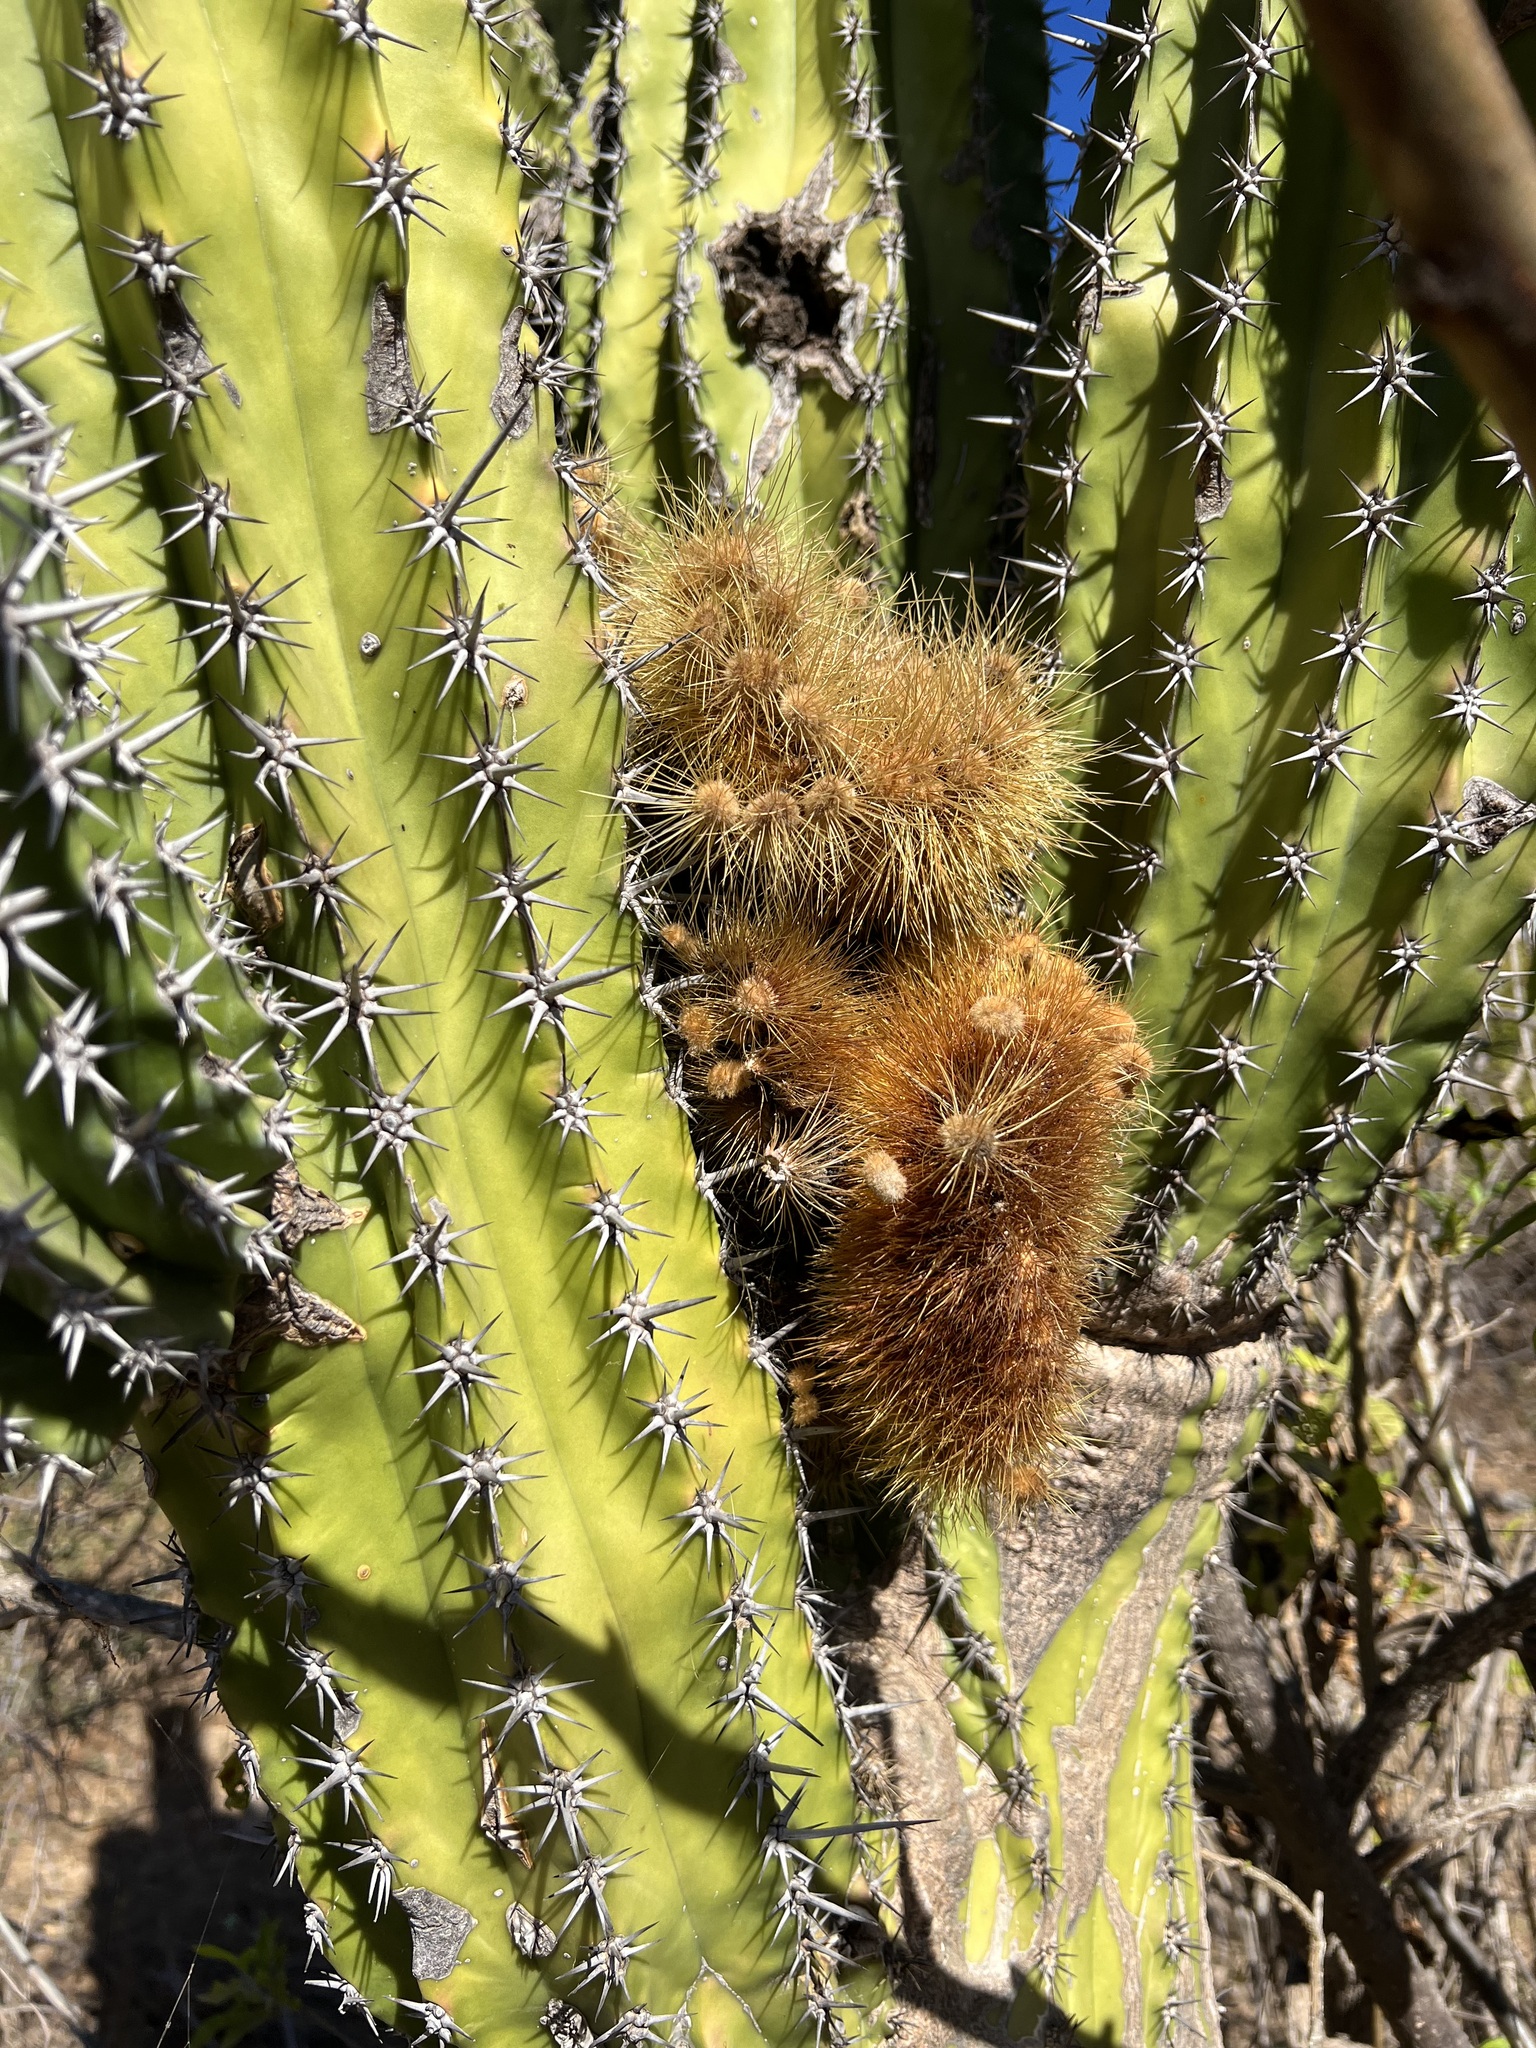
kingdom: Plantae
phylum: Tracheophyta
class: Magnoliopsida
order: Caryophyllales
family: Cactaceae
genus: Pachycereus
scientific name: Pachycereus pecten-aboriginum
